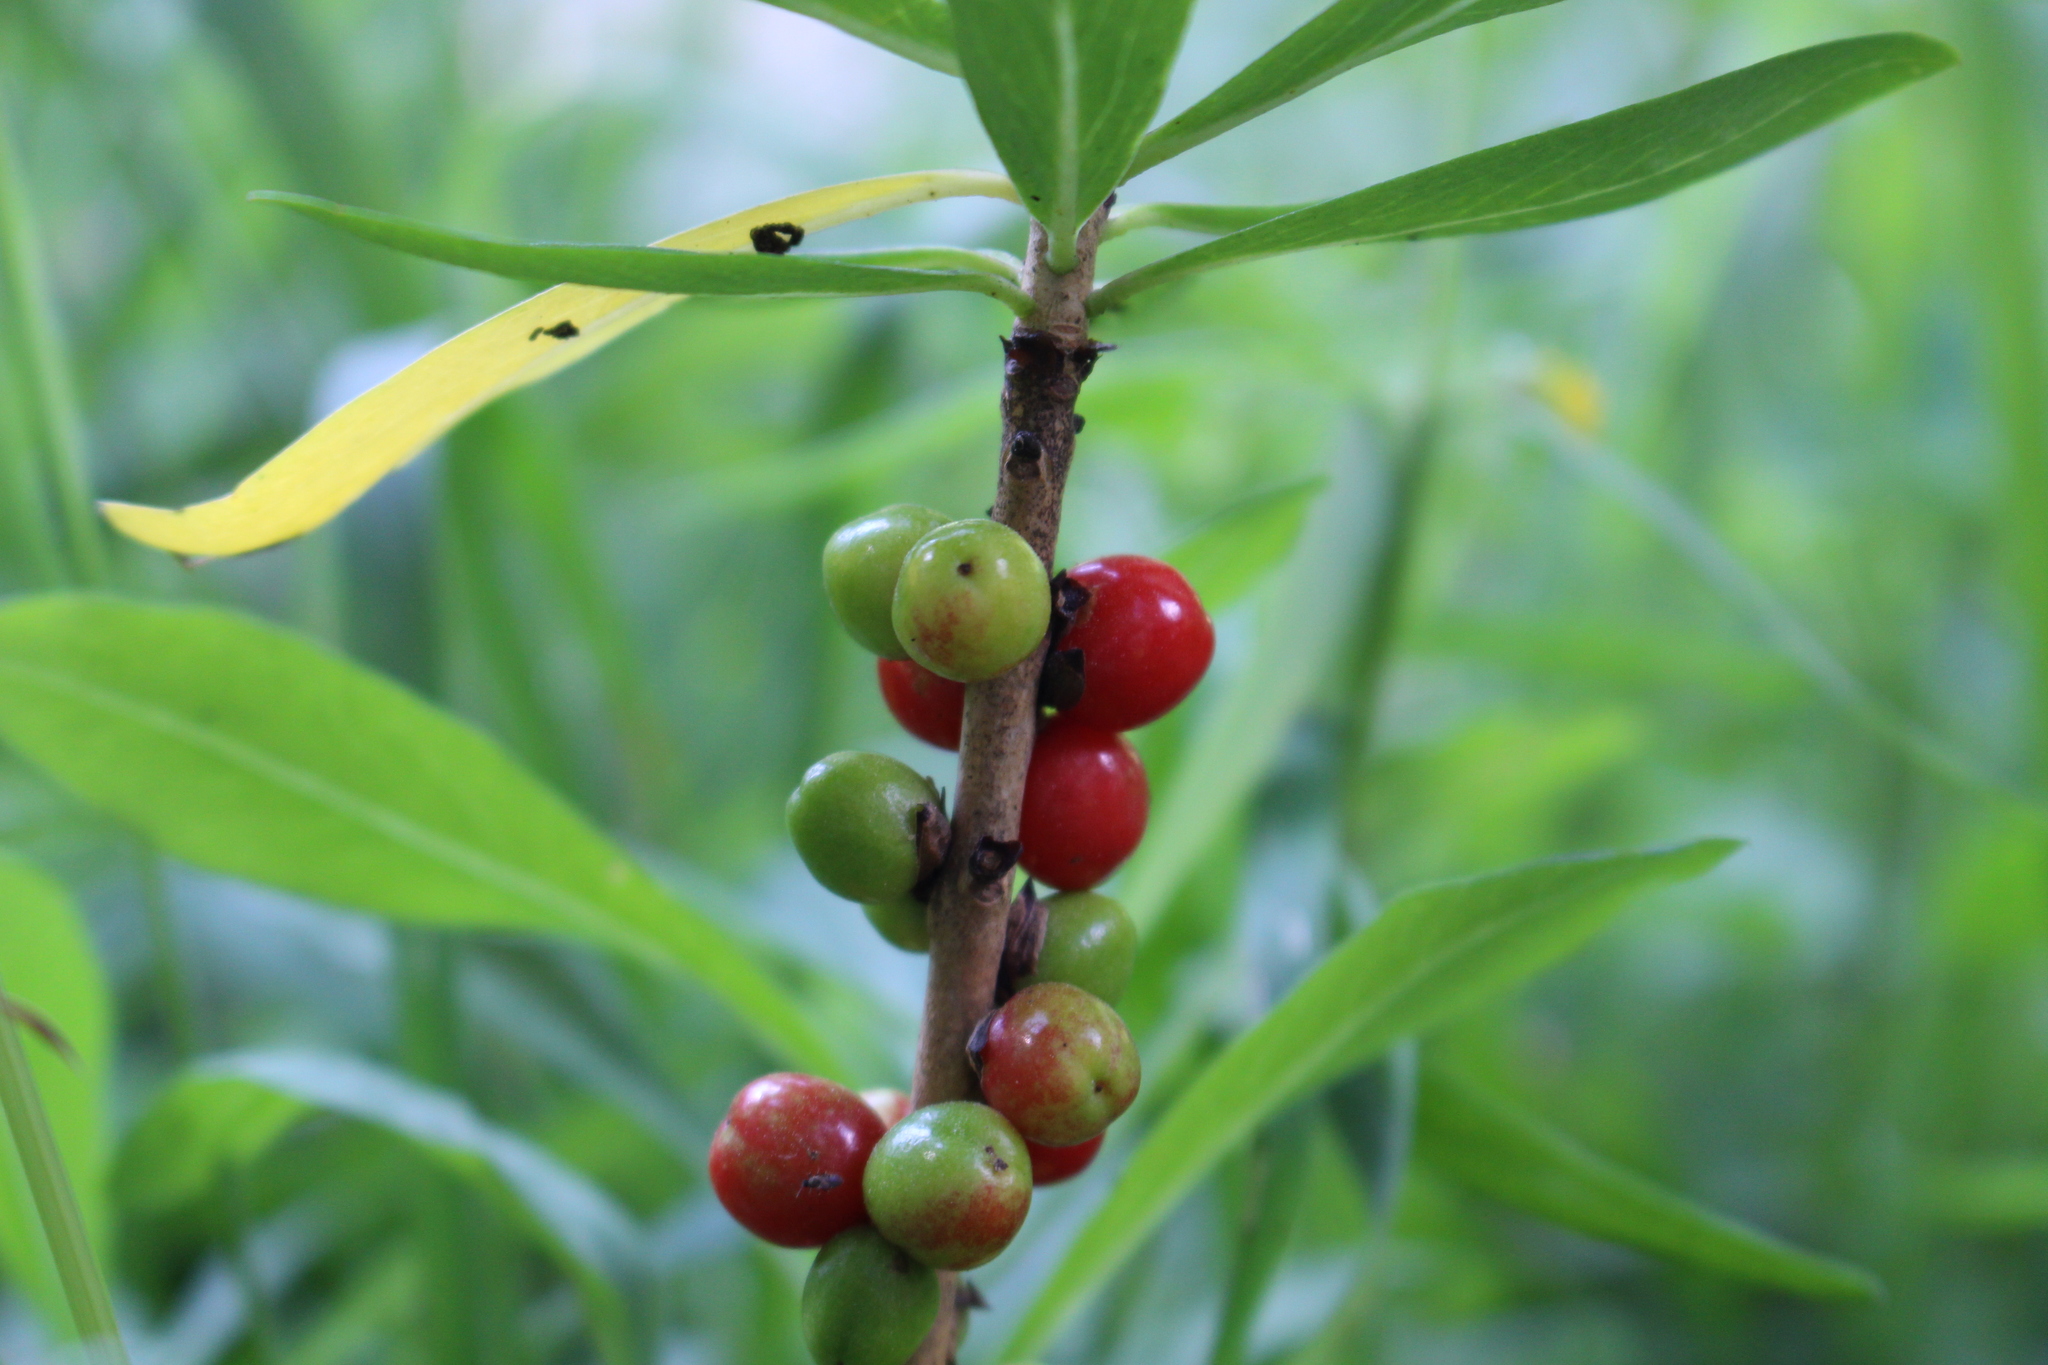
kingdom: Plantae
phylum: Tracheophyta
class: Magnoliopsida
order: Malvales
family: Thymelaeaceae
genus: Daphne
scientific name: Daphne mezereum
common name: Mezereon
